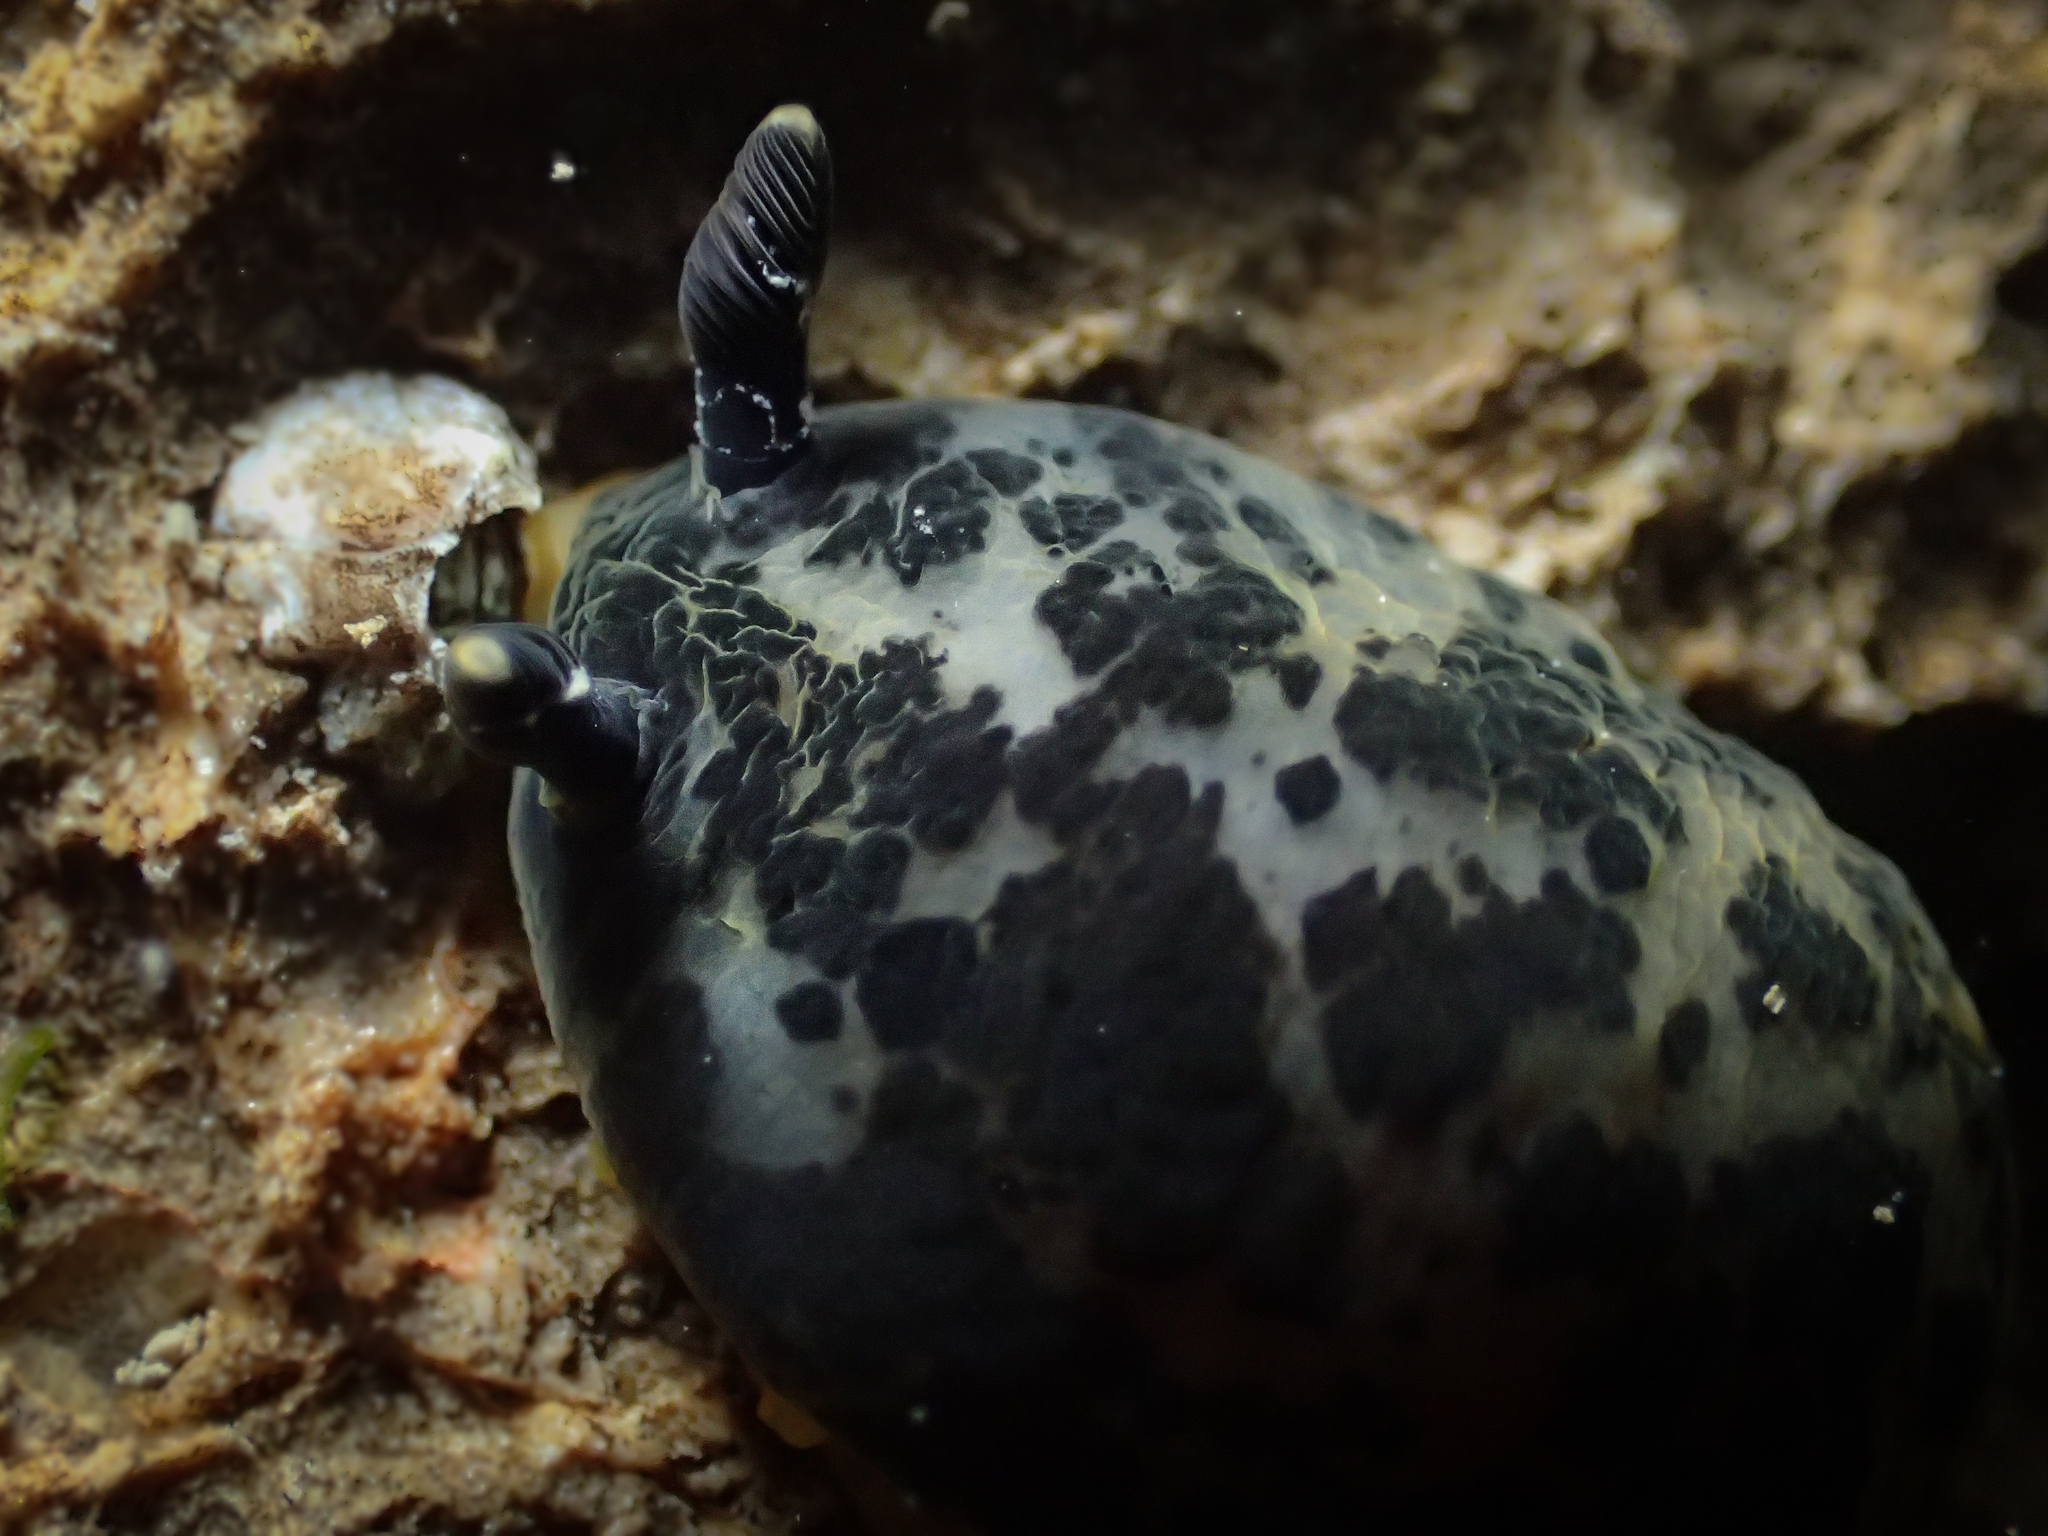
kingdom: Animalia
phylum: Mollusca
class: Gastropoda
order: Nudibranchia
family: Dendrodorididae
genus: Dendrodoris
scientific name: Dendrodoris limbata
